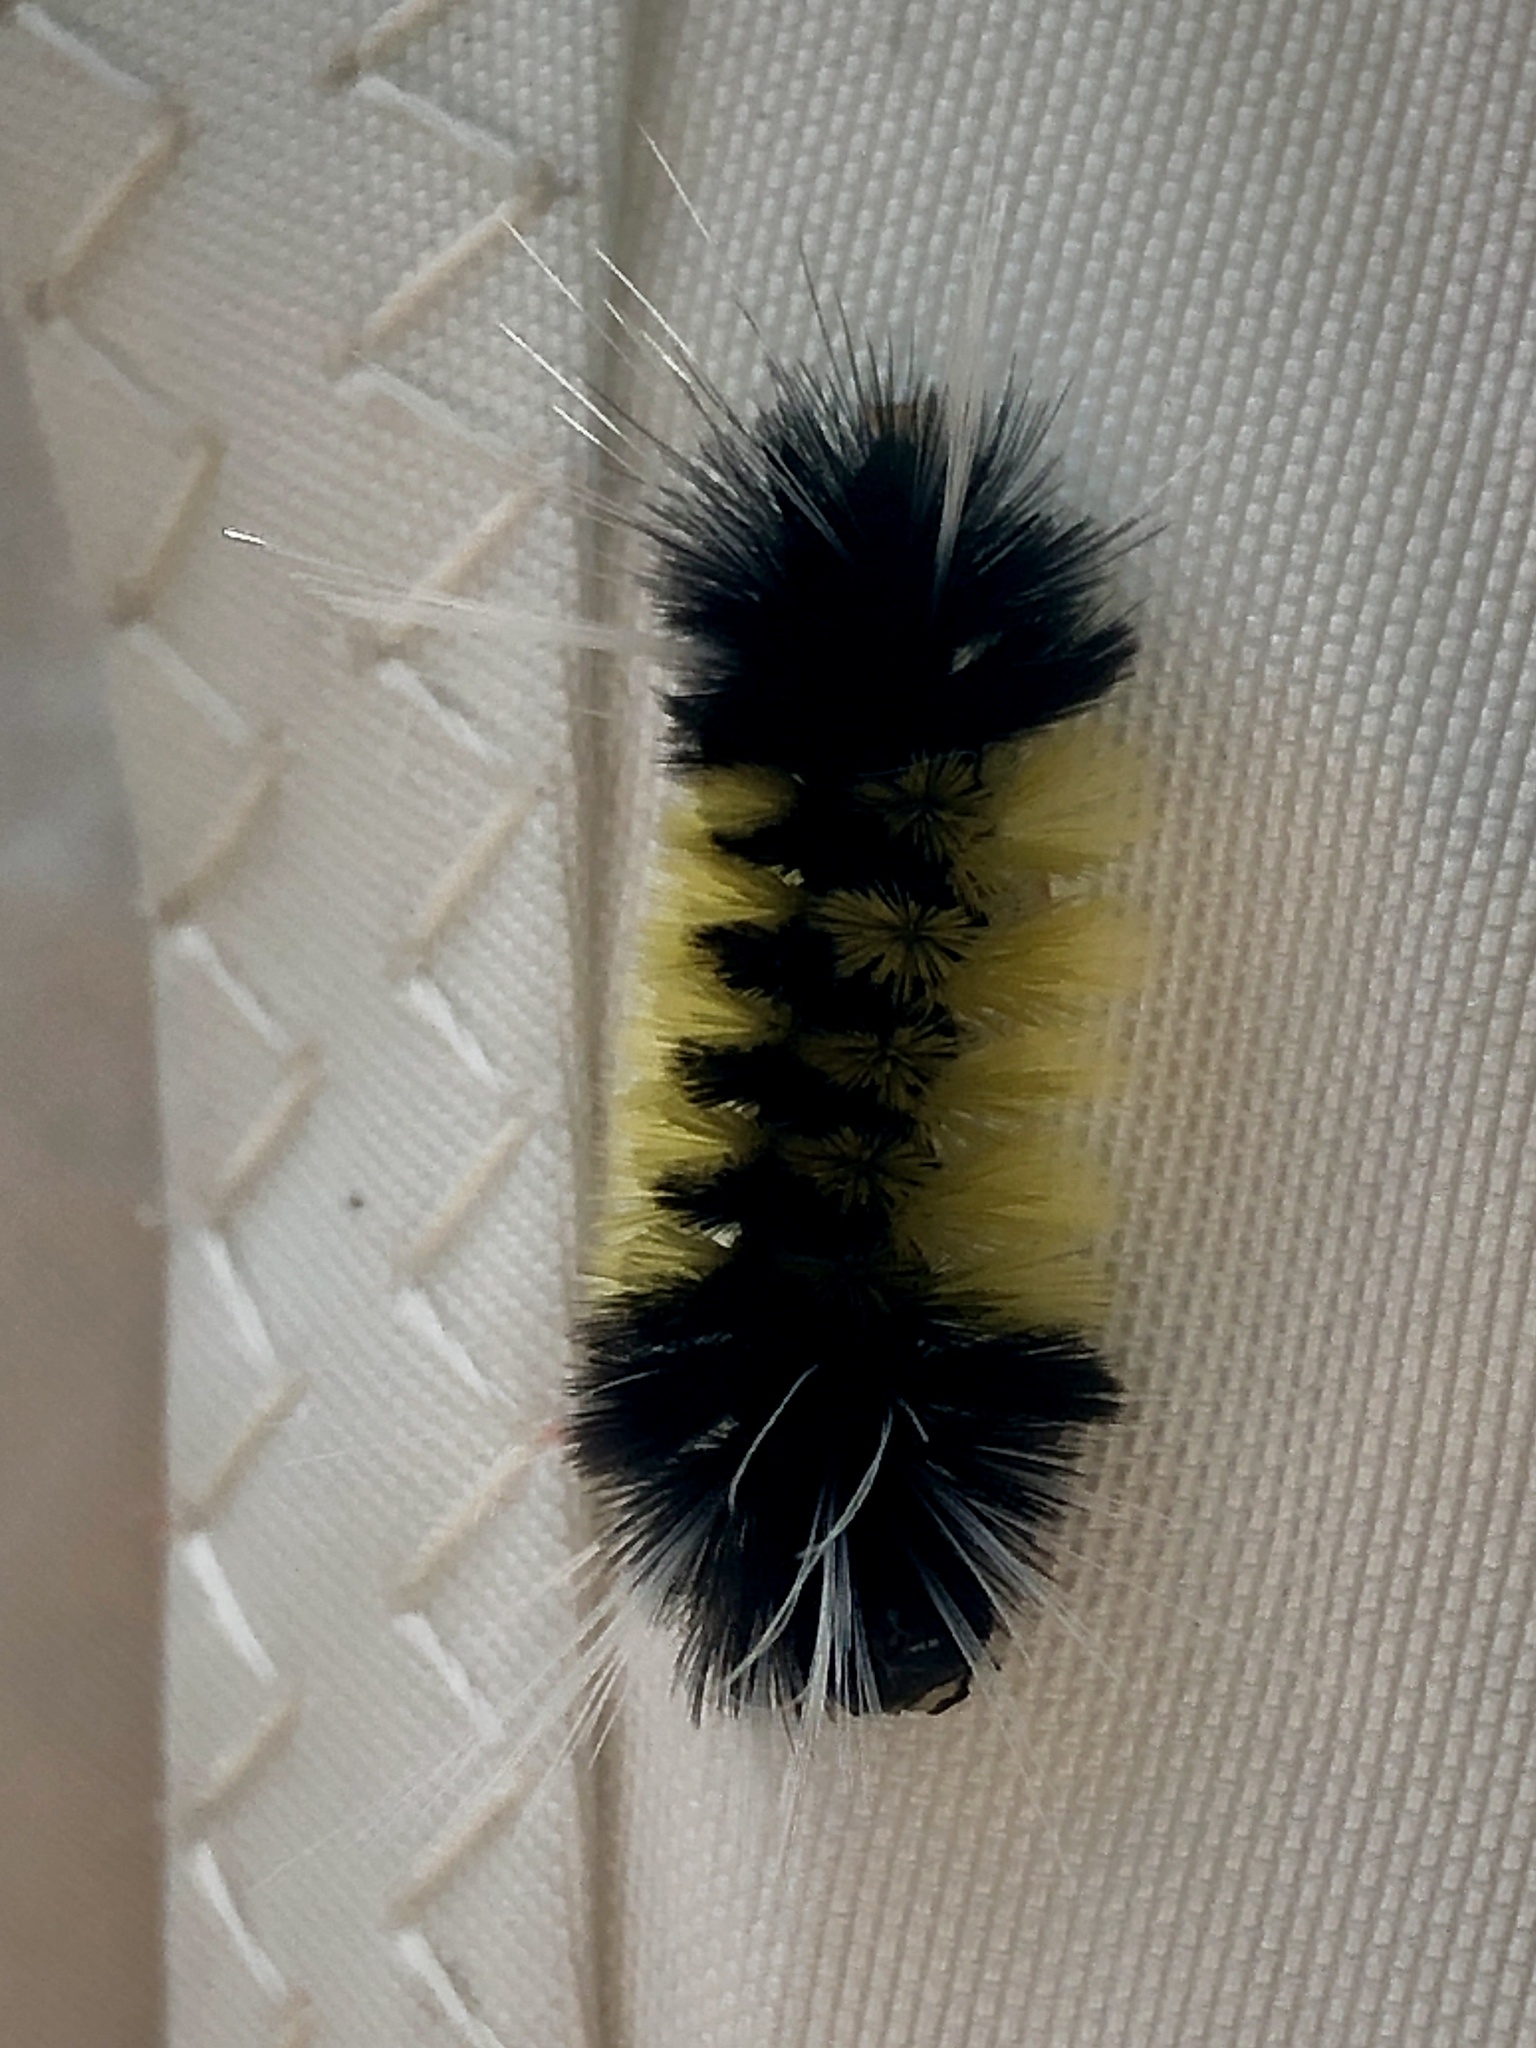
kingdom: Animalia
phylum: Arthropoda
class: Insecta
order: Lepidoptera
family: Erebidae
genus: Lophocampa
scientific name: Lophocampa maculata
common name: Spotted tussock moth
